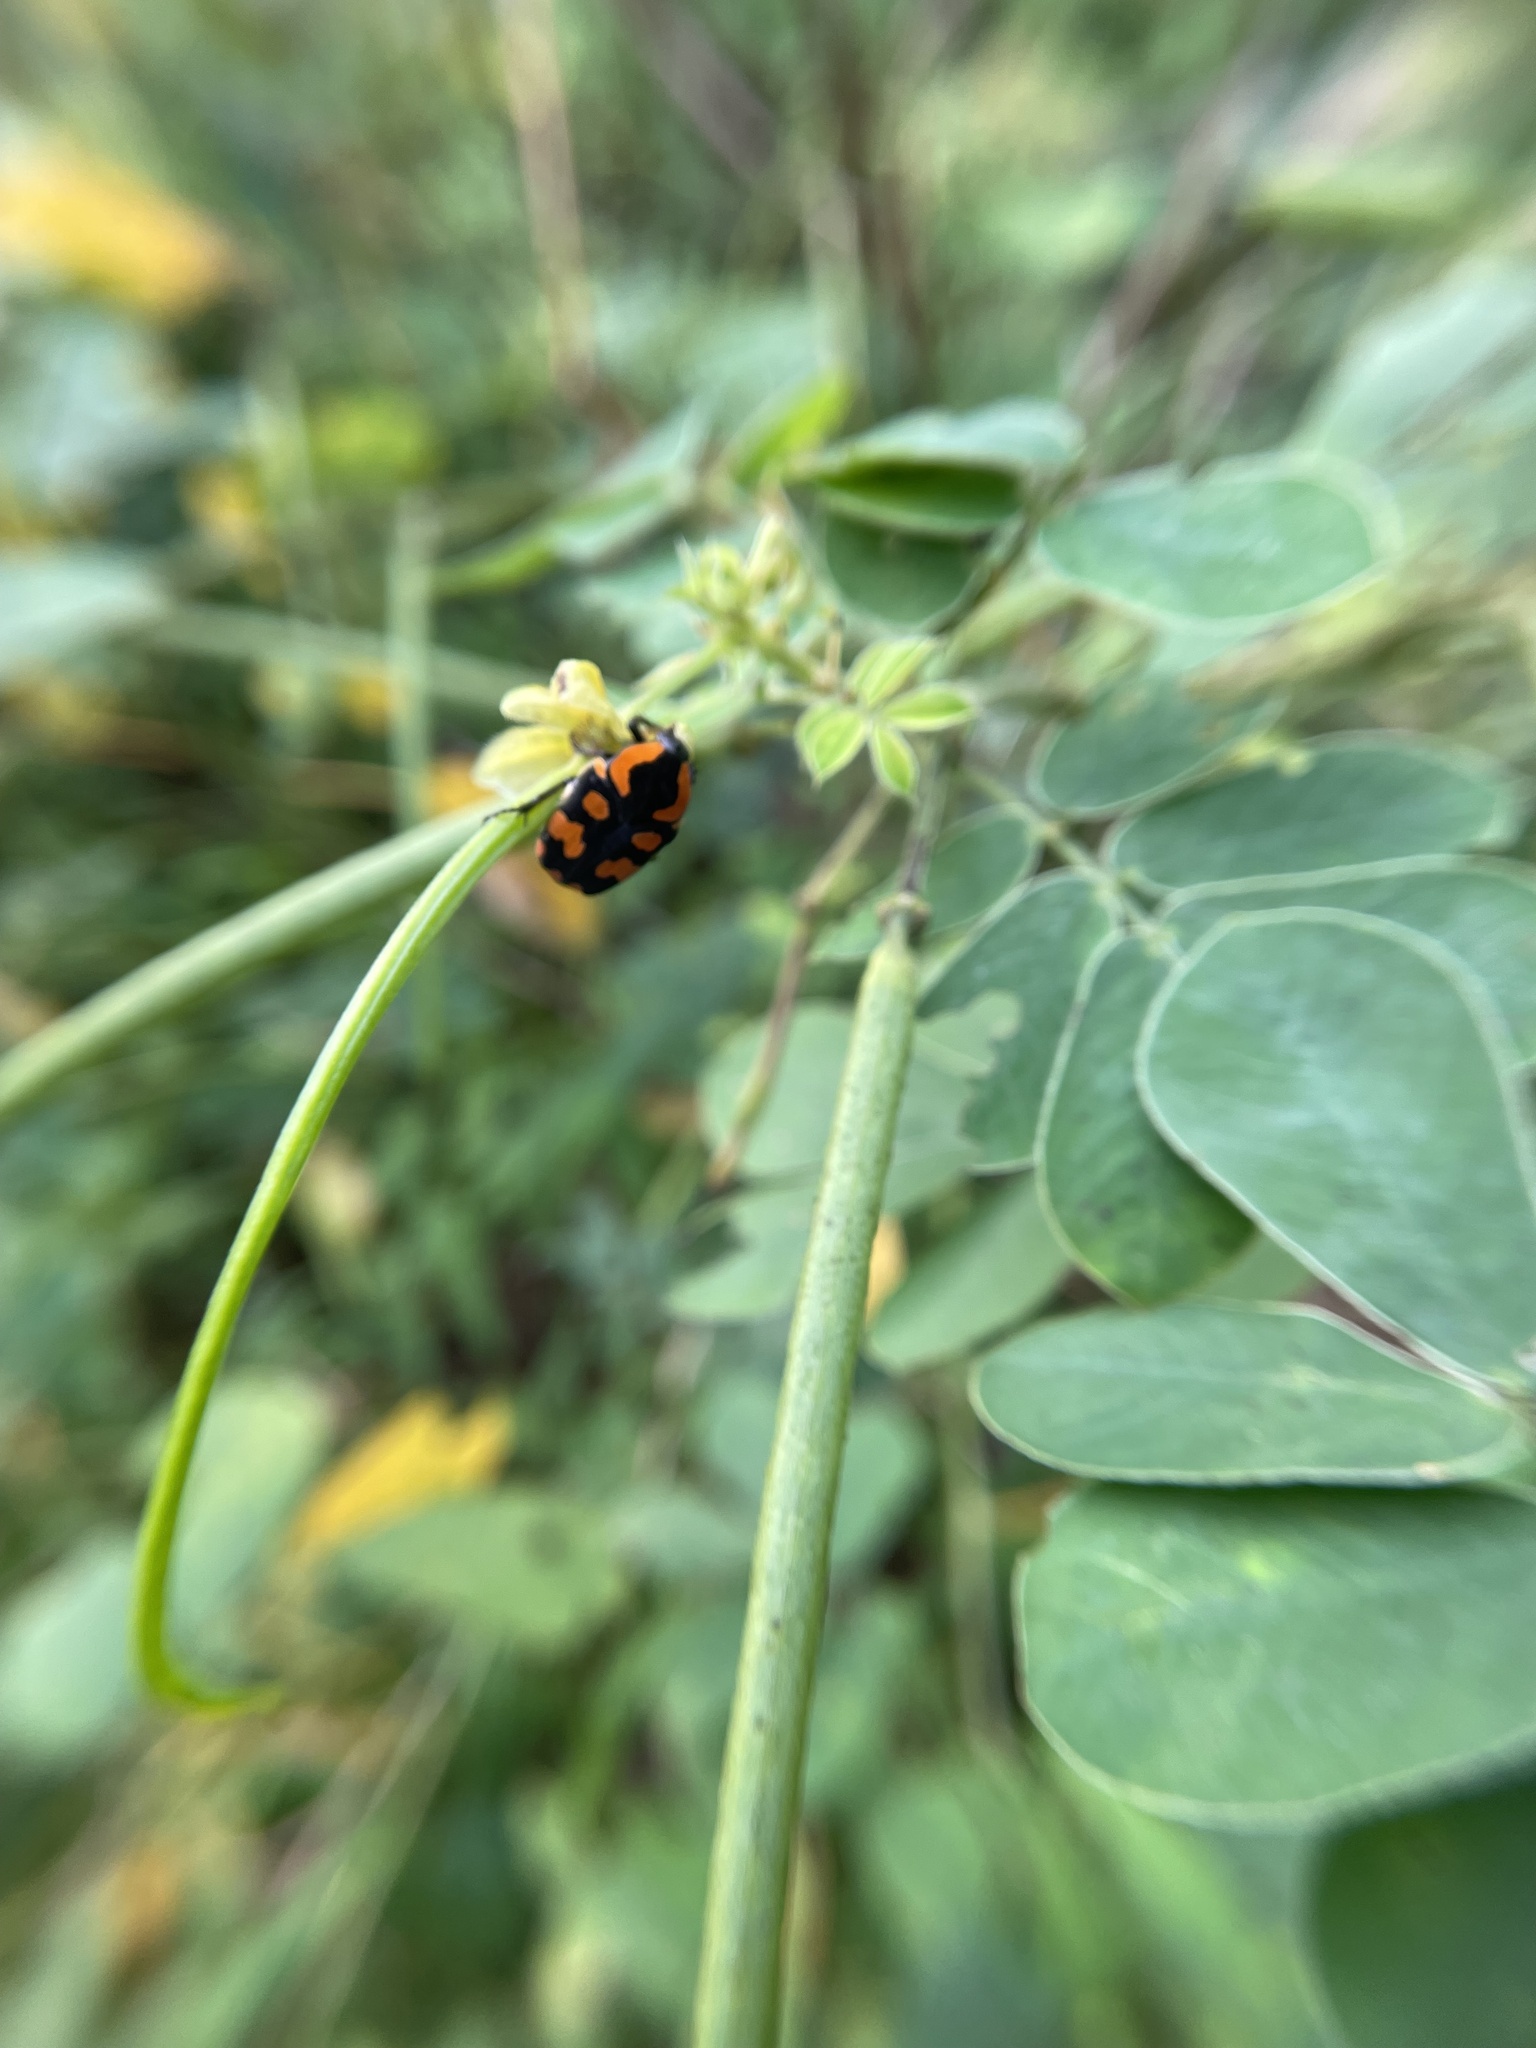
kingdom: Animalia
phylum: Arthropoda
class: Insecta
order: Coleoptera
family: Scarabaeidae
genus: Clinteria
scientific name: Clinteria klugi
